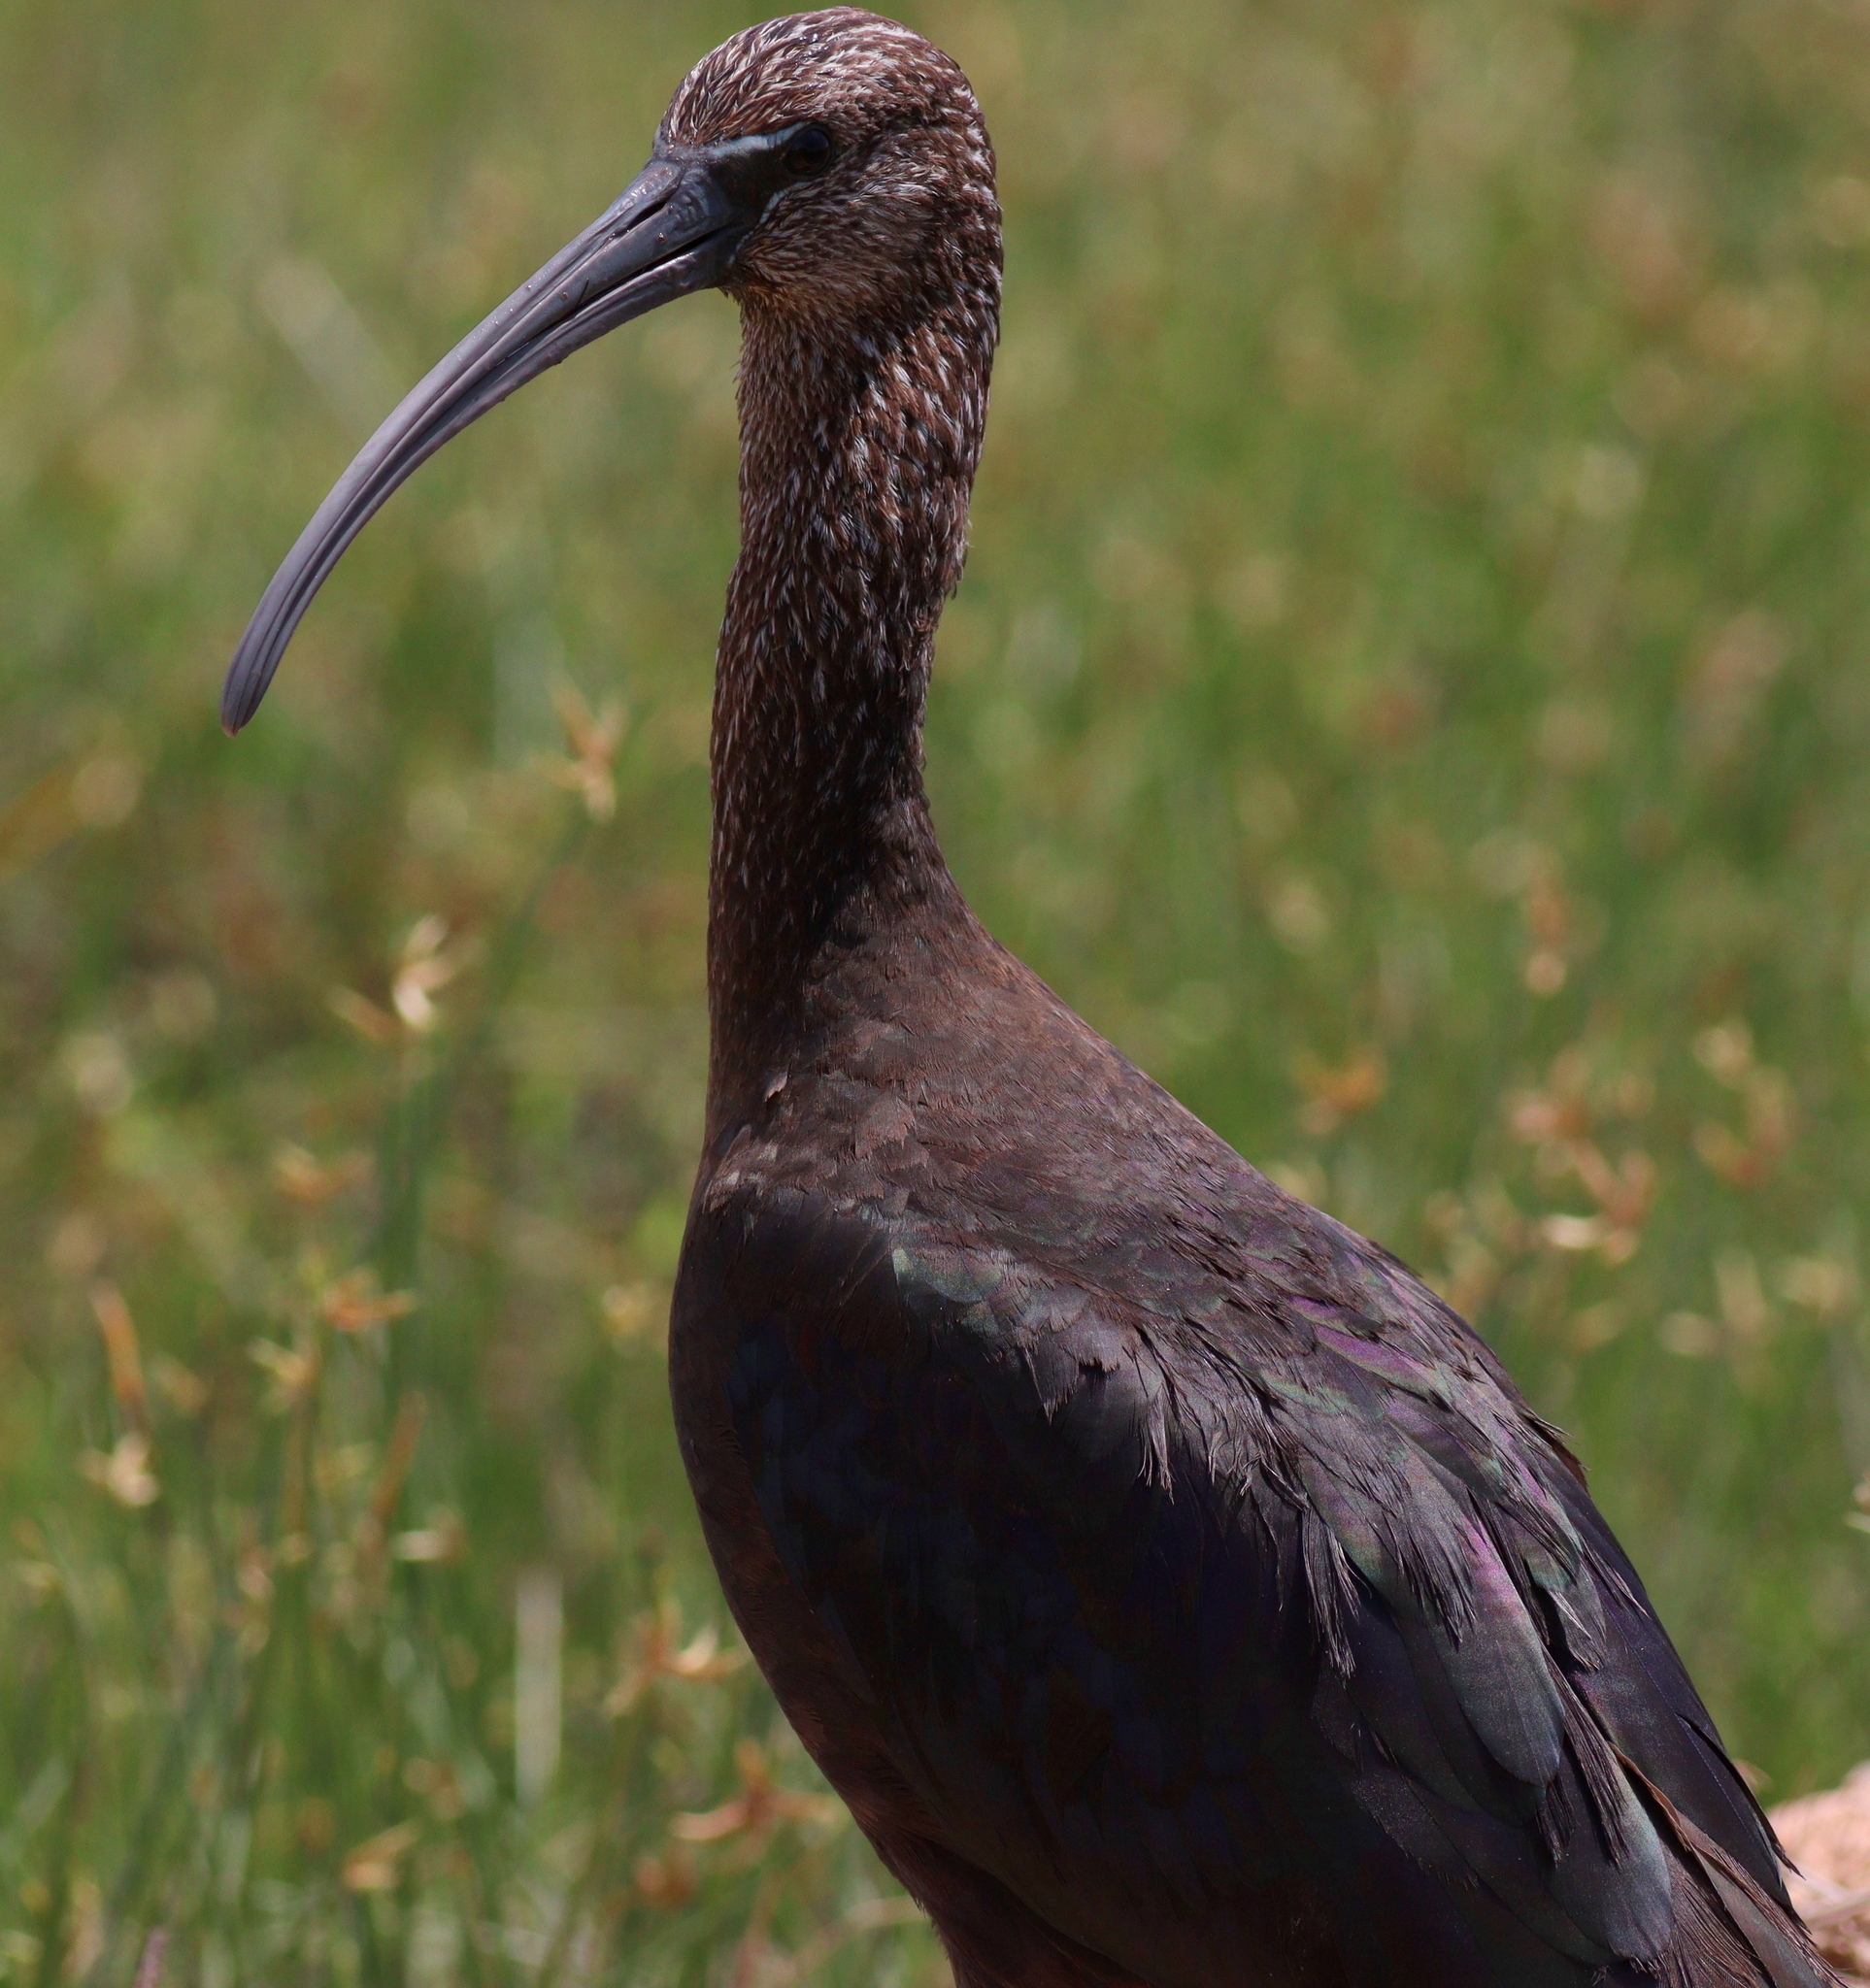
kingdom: Animalia
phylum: Chordata
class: Aves
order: Pelecaniformes
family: Threskiornithidae
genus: Plegadis
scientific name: Plegadis falcinellus
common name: Glossy ibis
